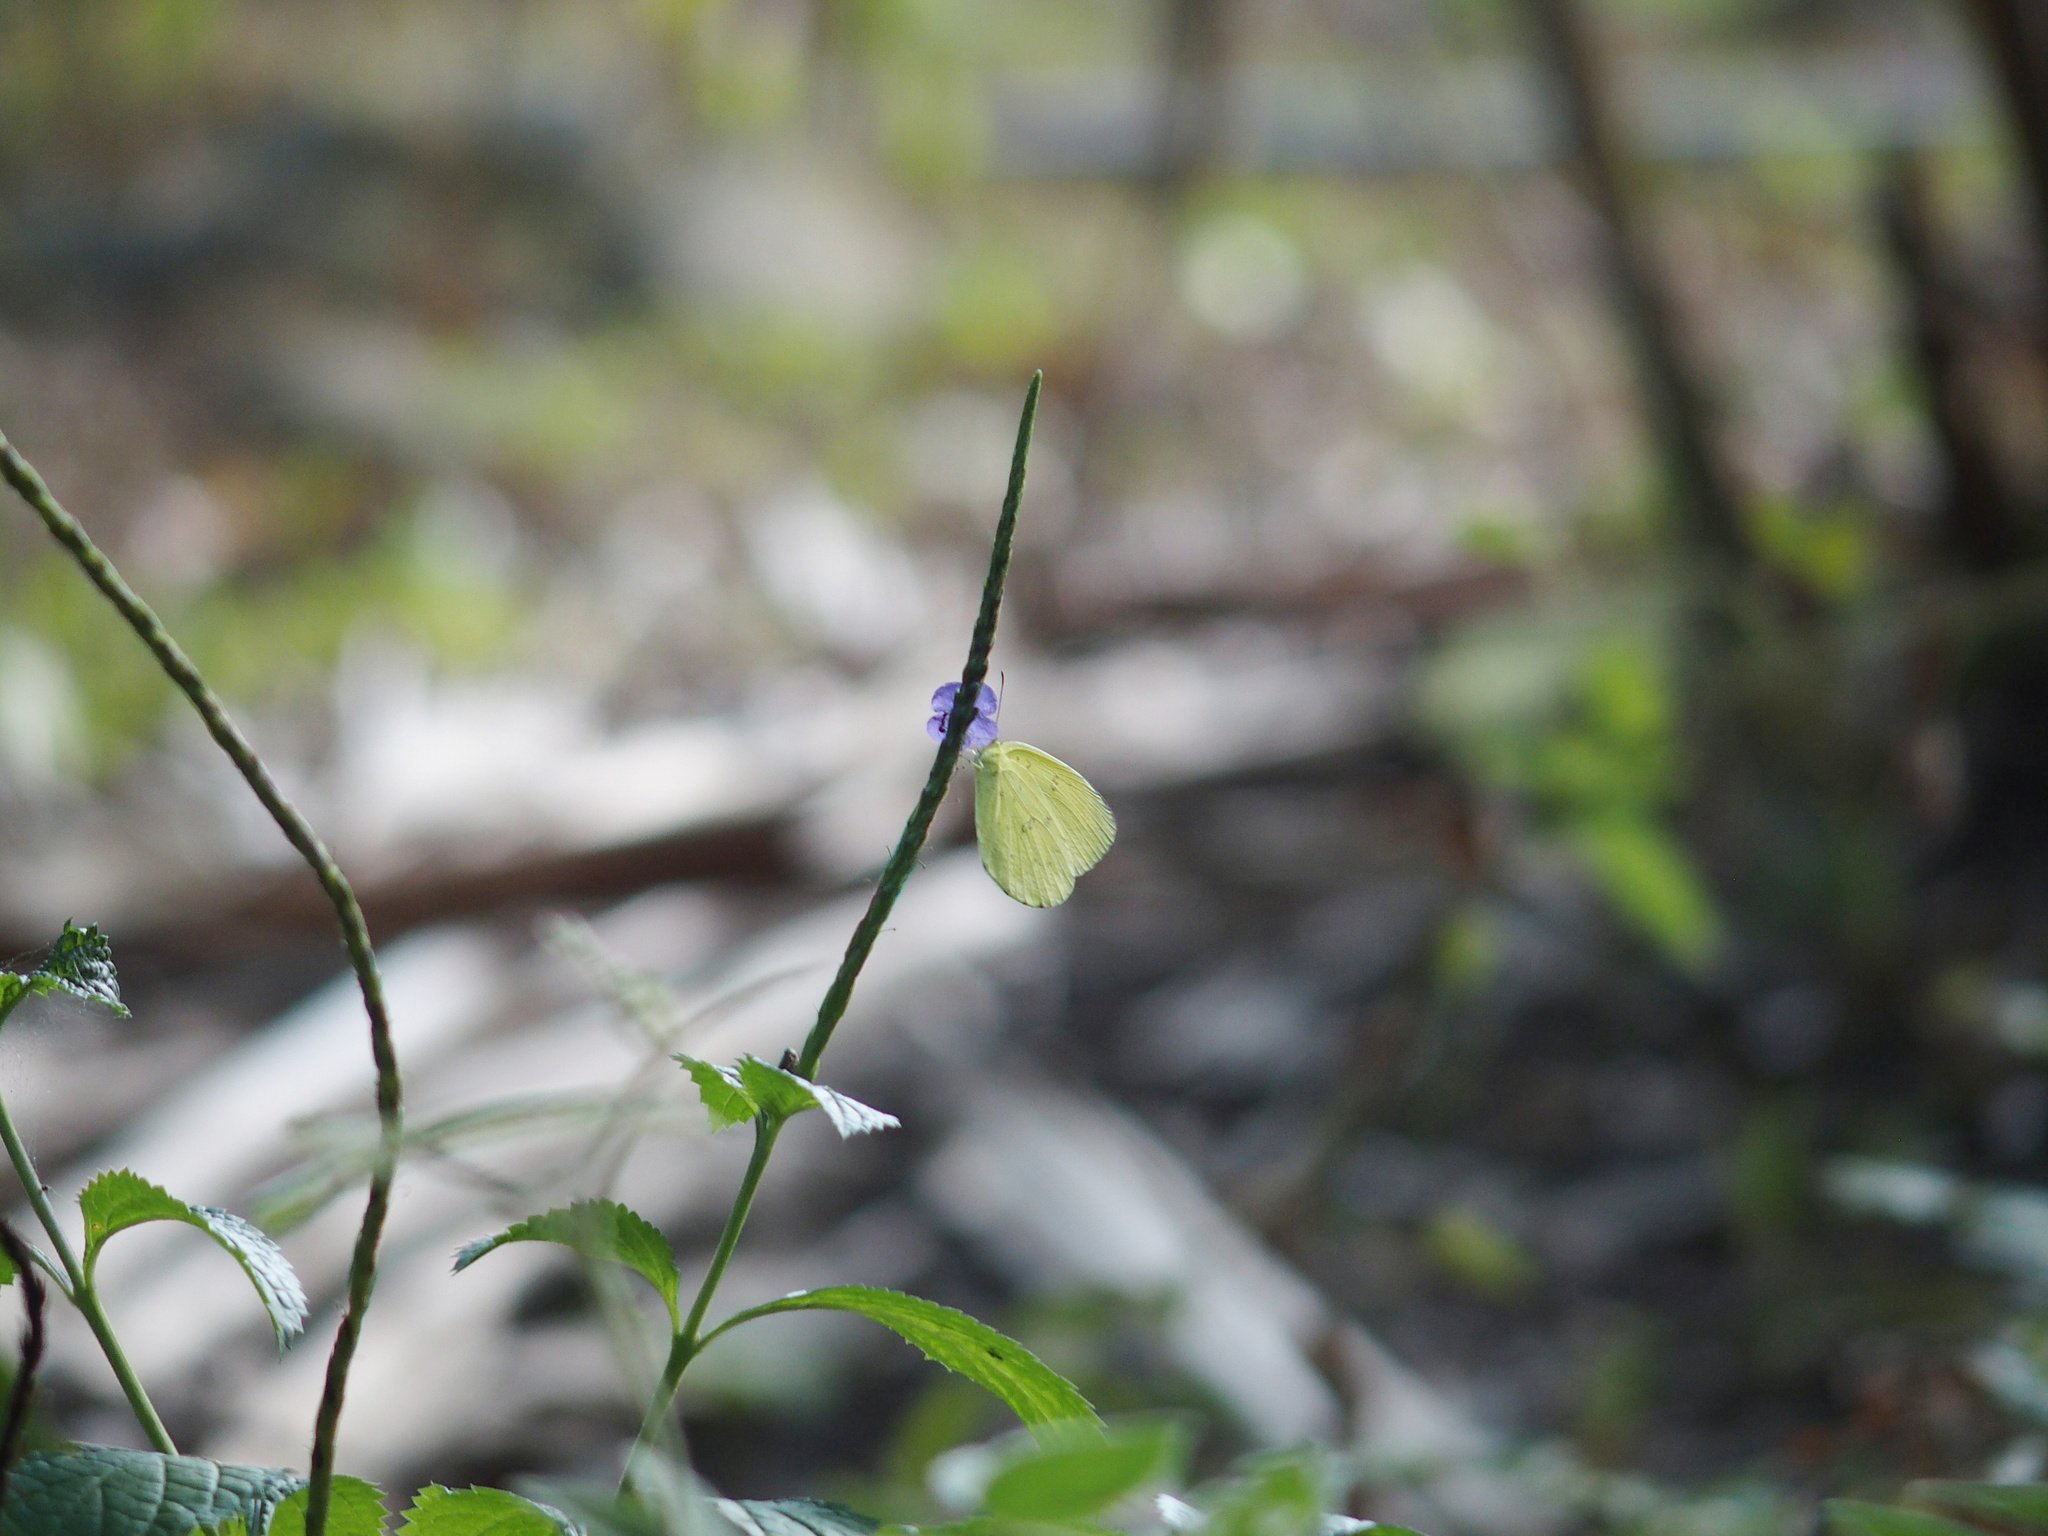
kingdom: Animalia
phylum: Arthropoda
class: Insecta
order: Lepidoptera
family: Pieridae
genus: Eurema
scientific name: Eurema blanda
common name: Three-spot grass yellow
